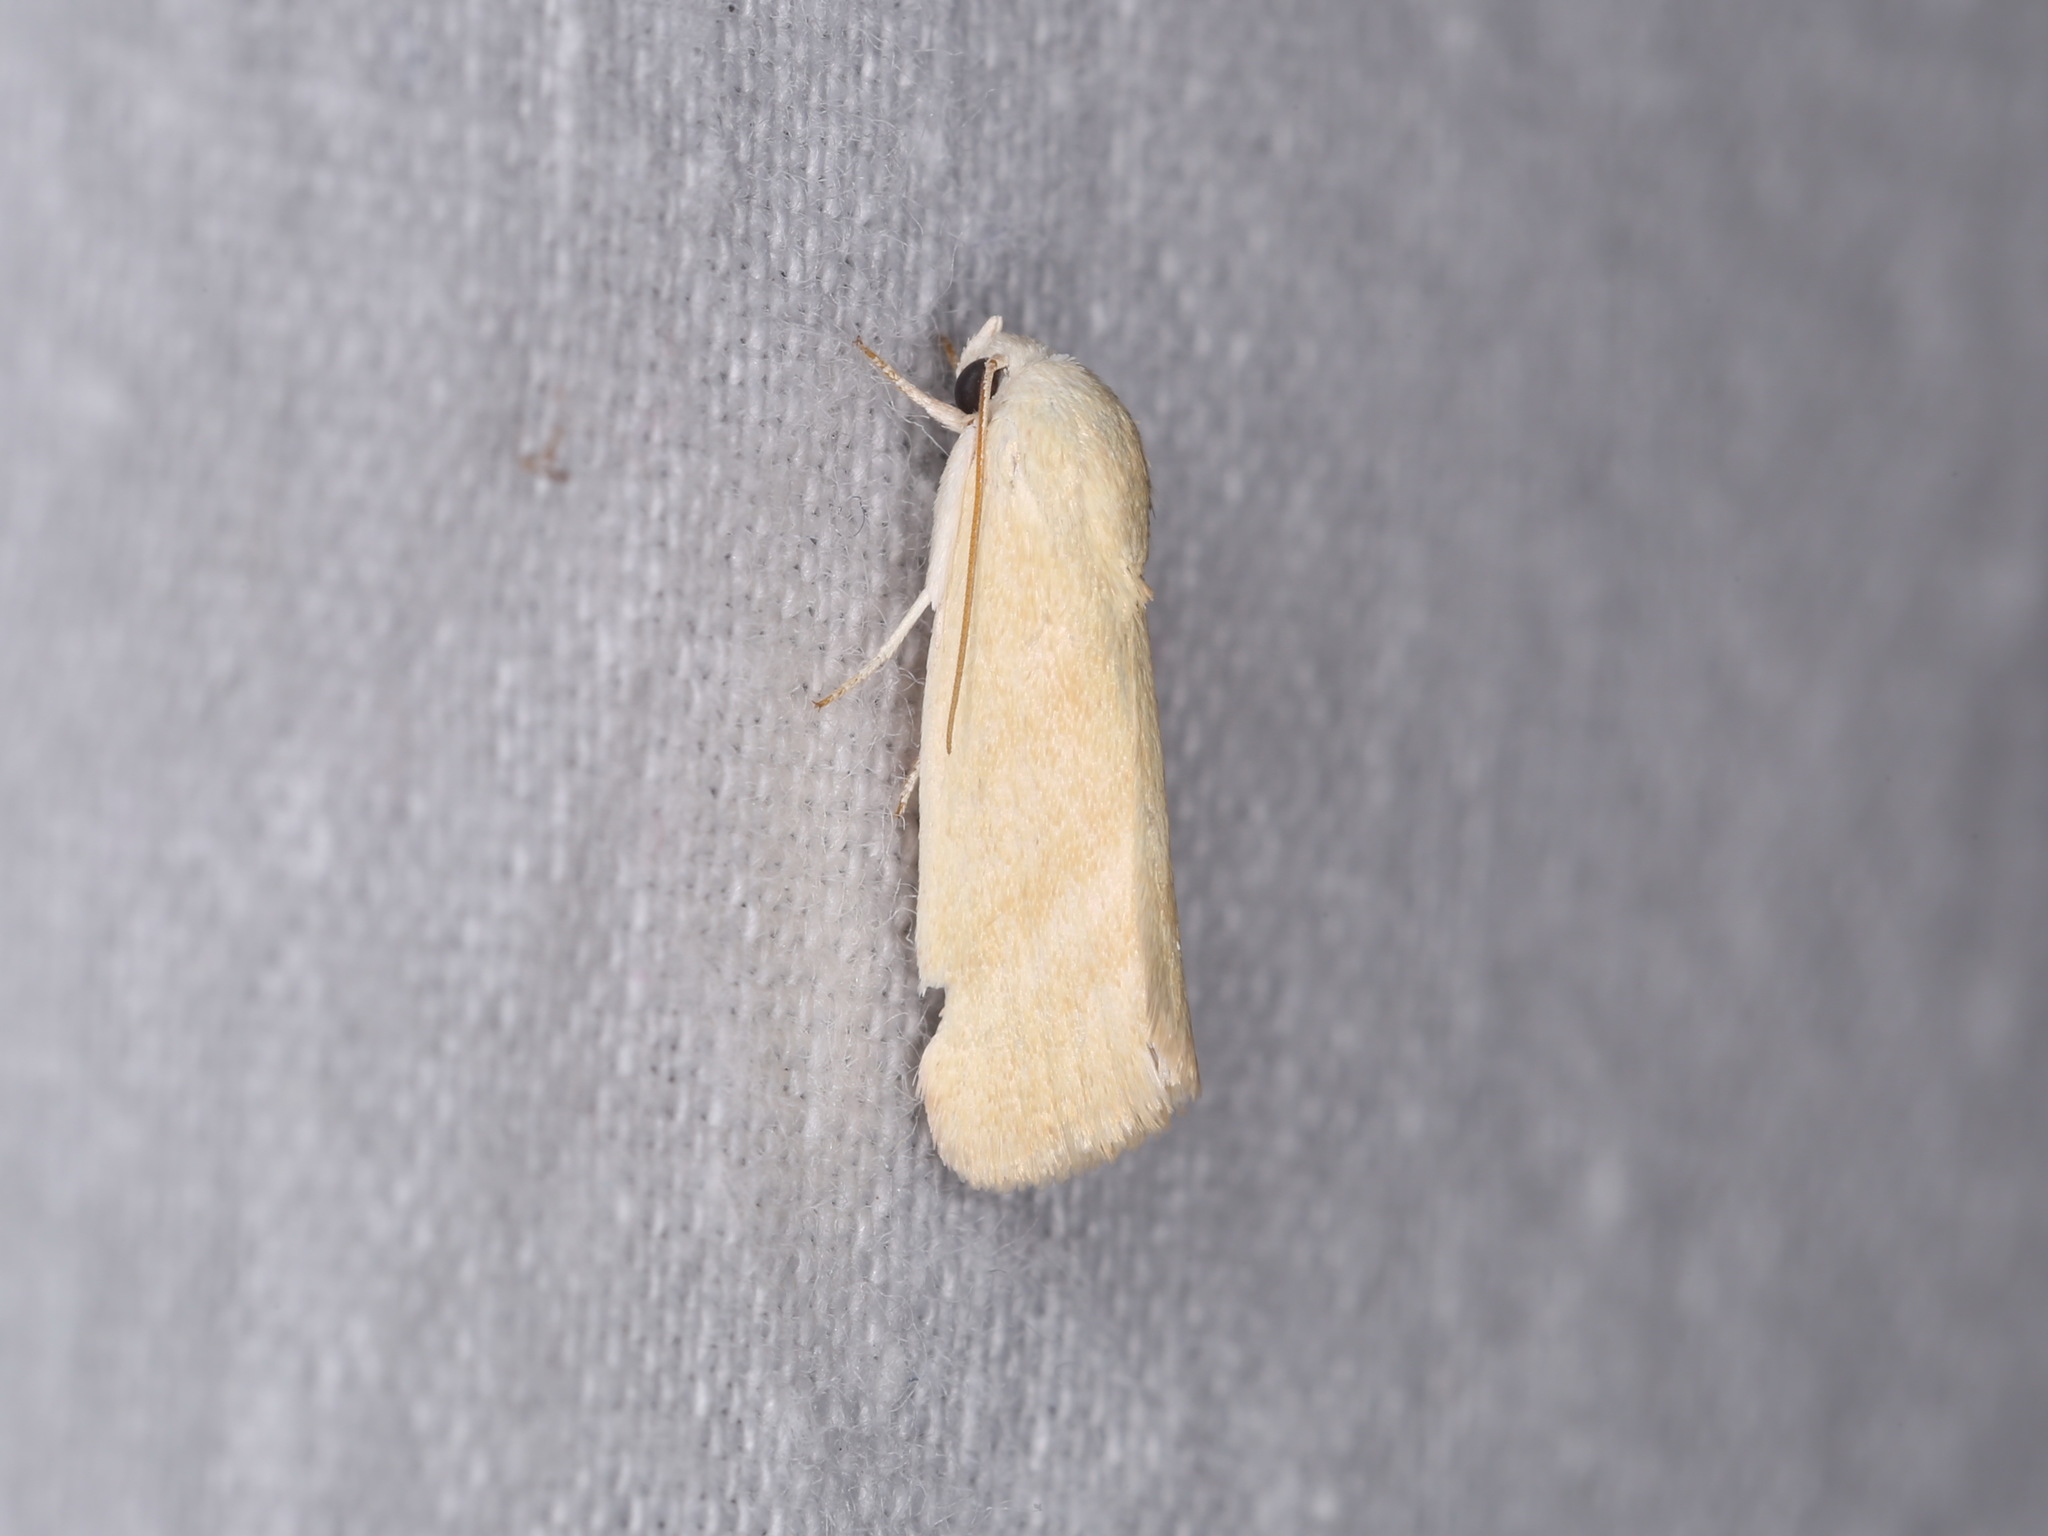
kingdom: Animalia
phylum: Arthropoda
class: Insecta
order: Lepidoptera
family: Nolidae
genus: Earias
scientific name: Earias paralella
